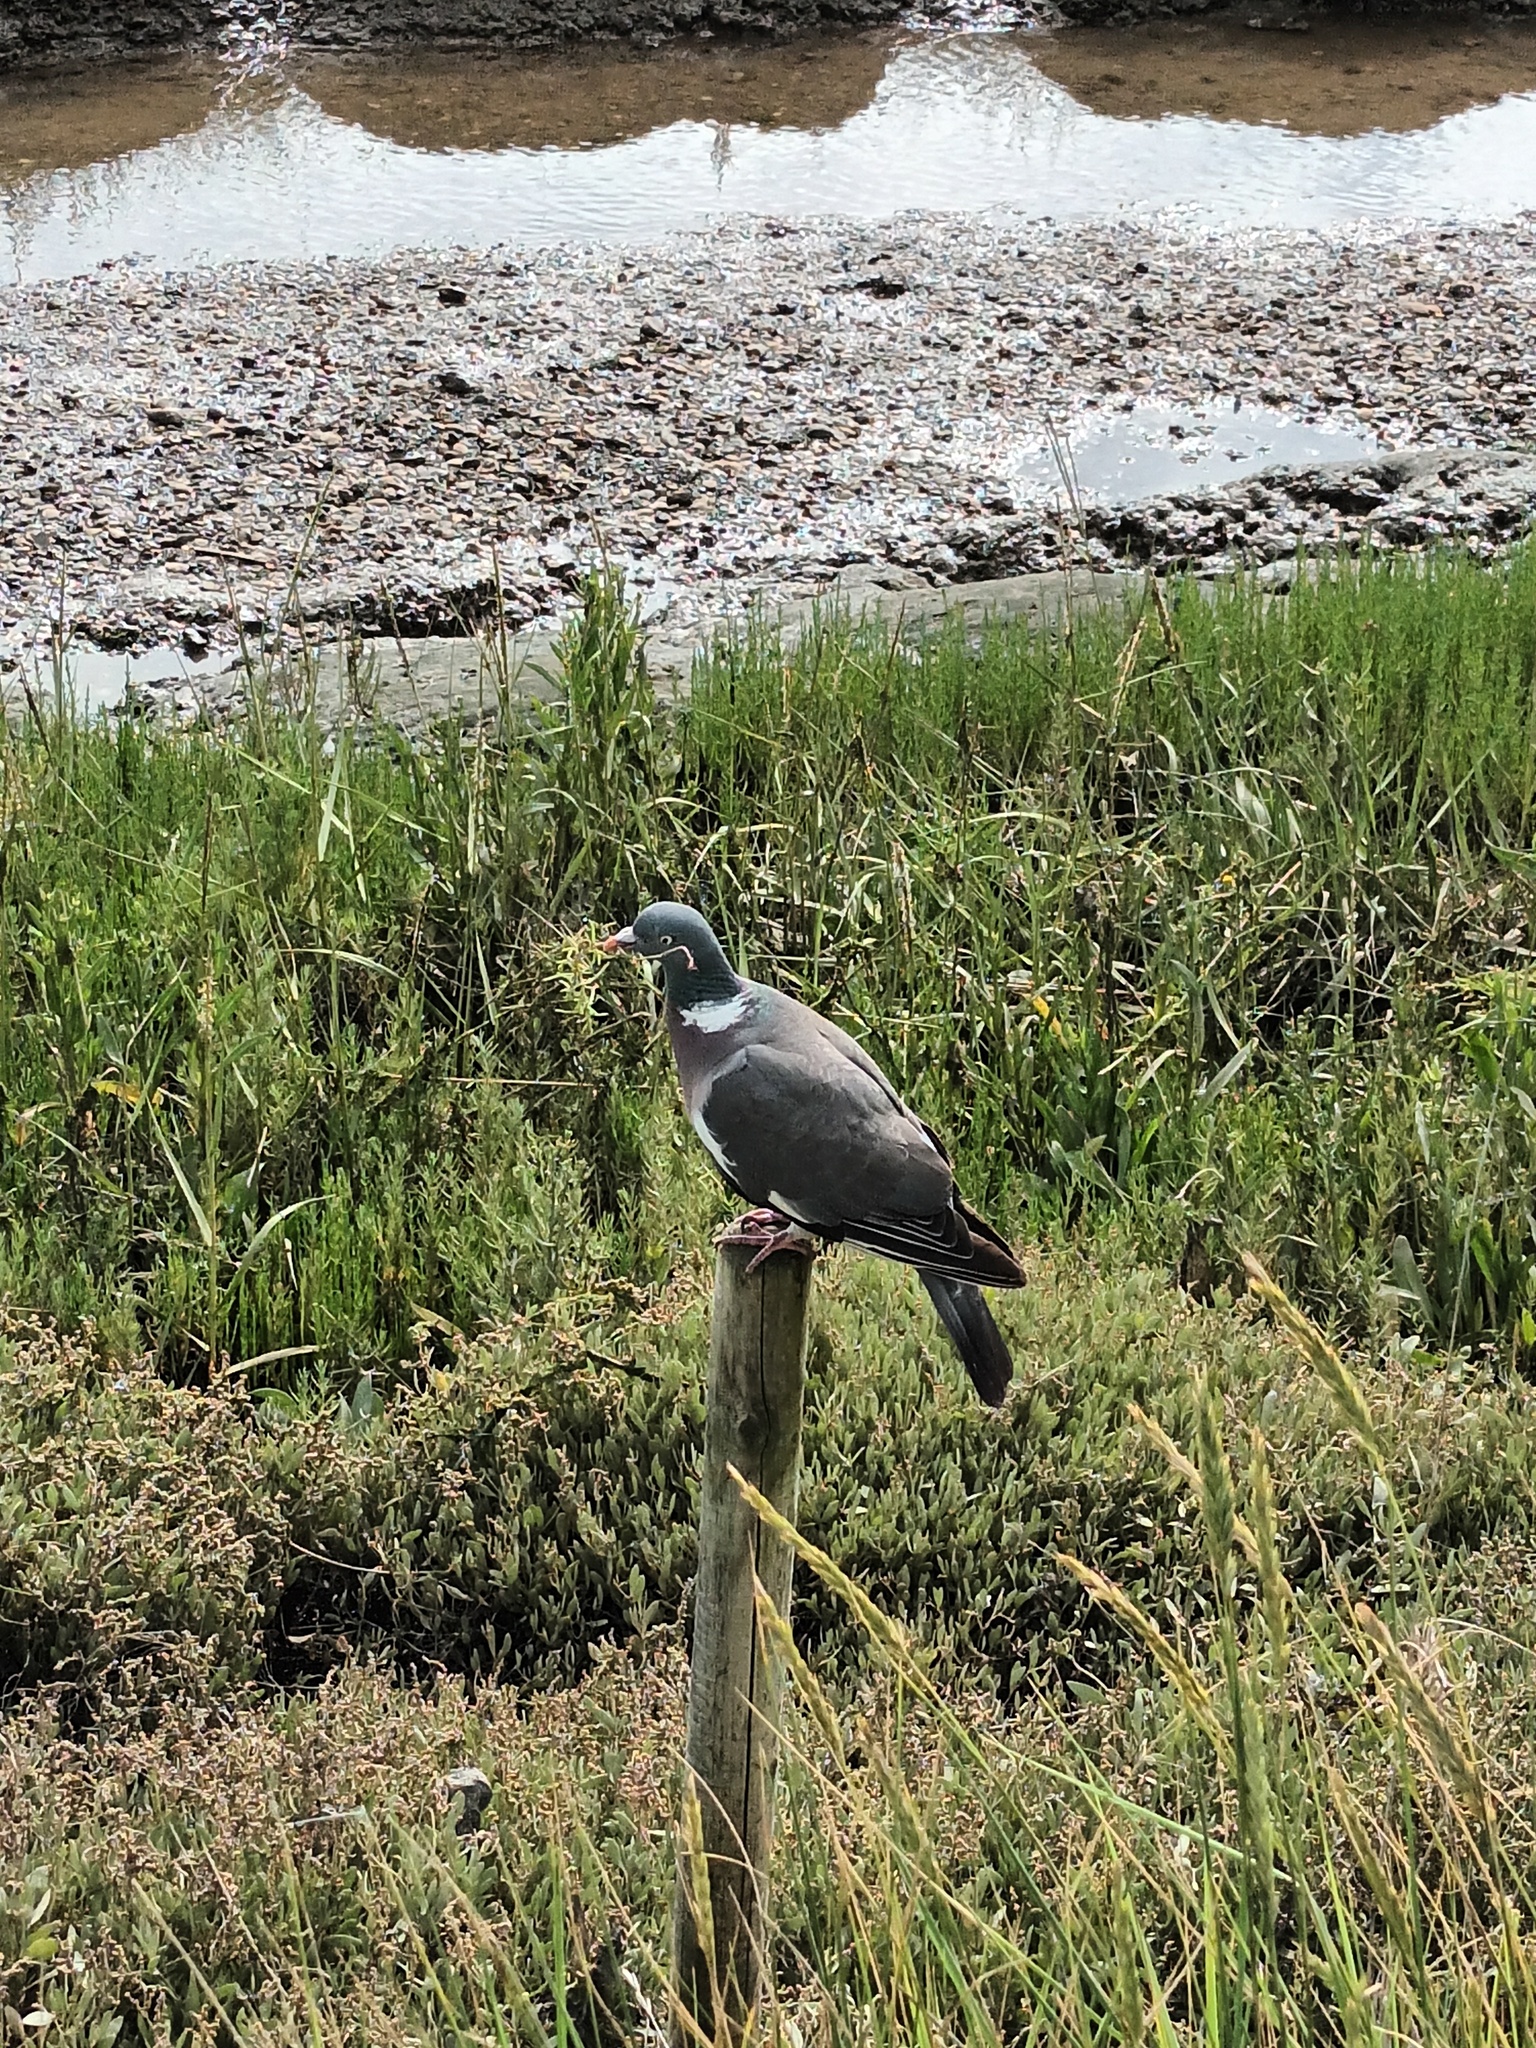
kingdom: Animalia
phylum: Chordata
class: Aves
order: Columbiformes
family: Columbidae
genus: Columba
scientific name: Columba palumbus
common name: Common wood pigeon
